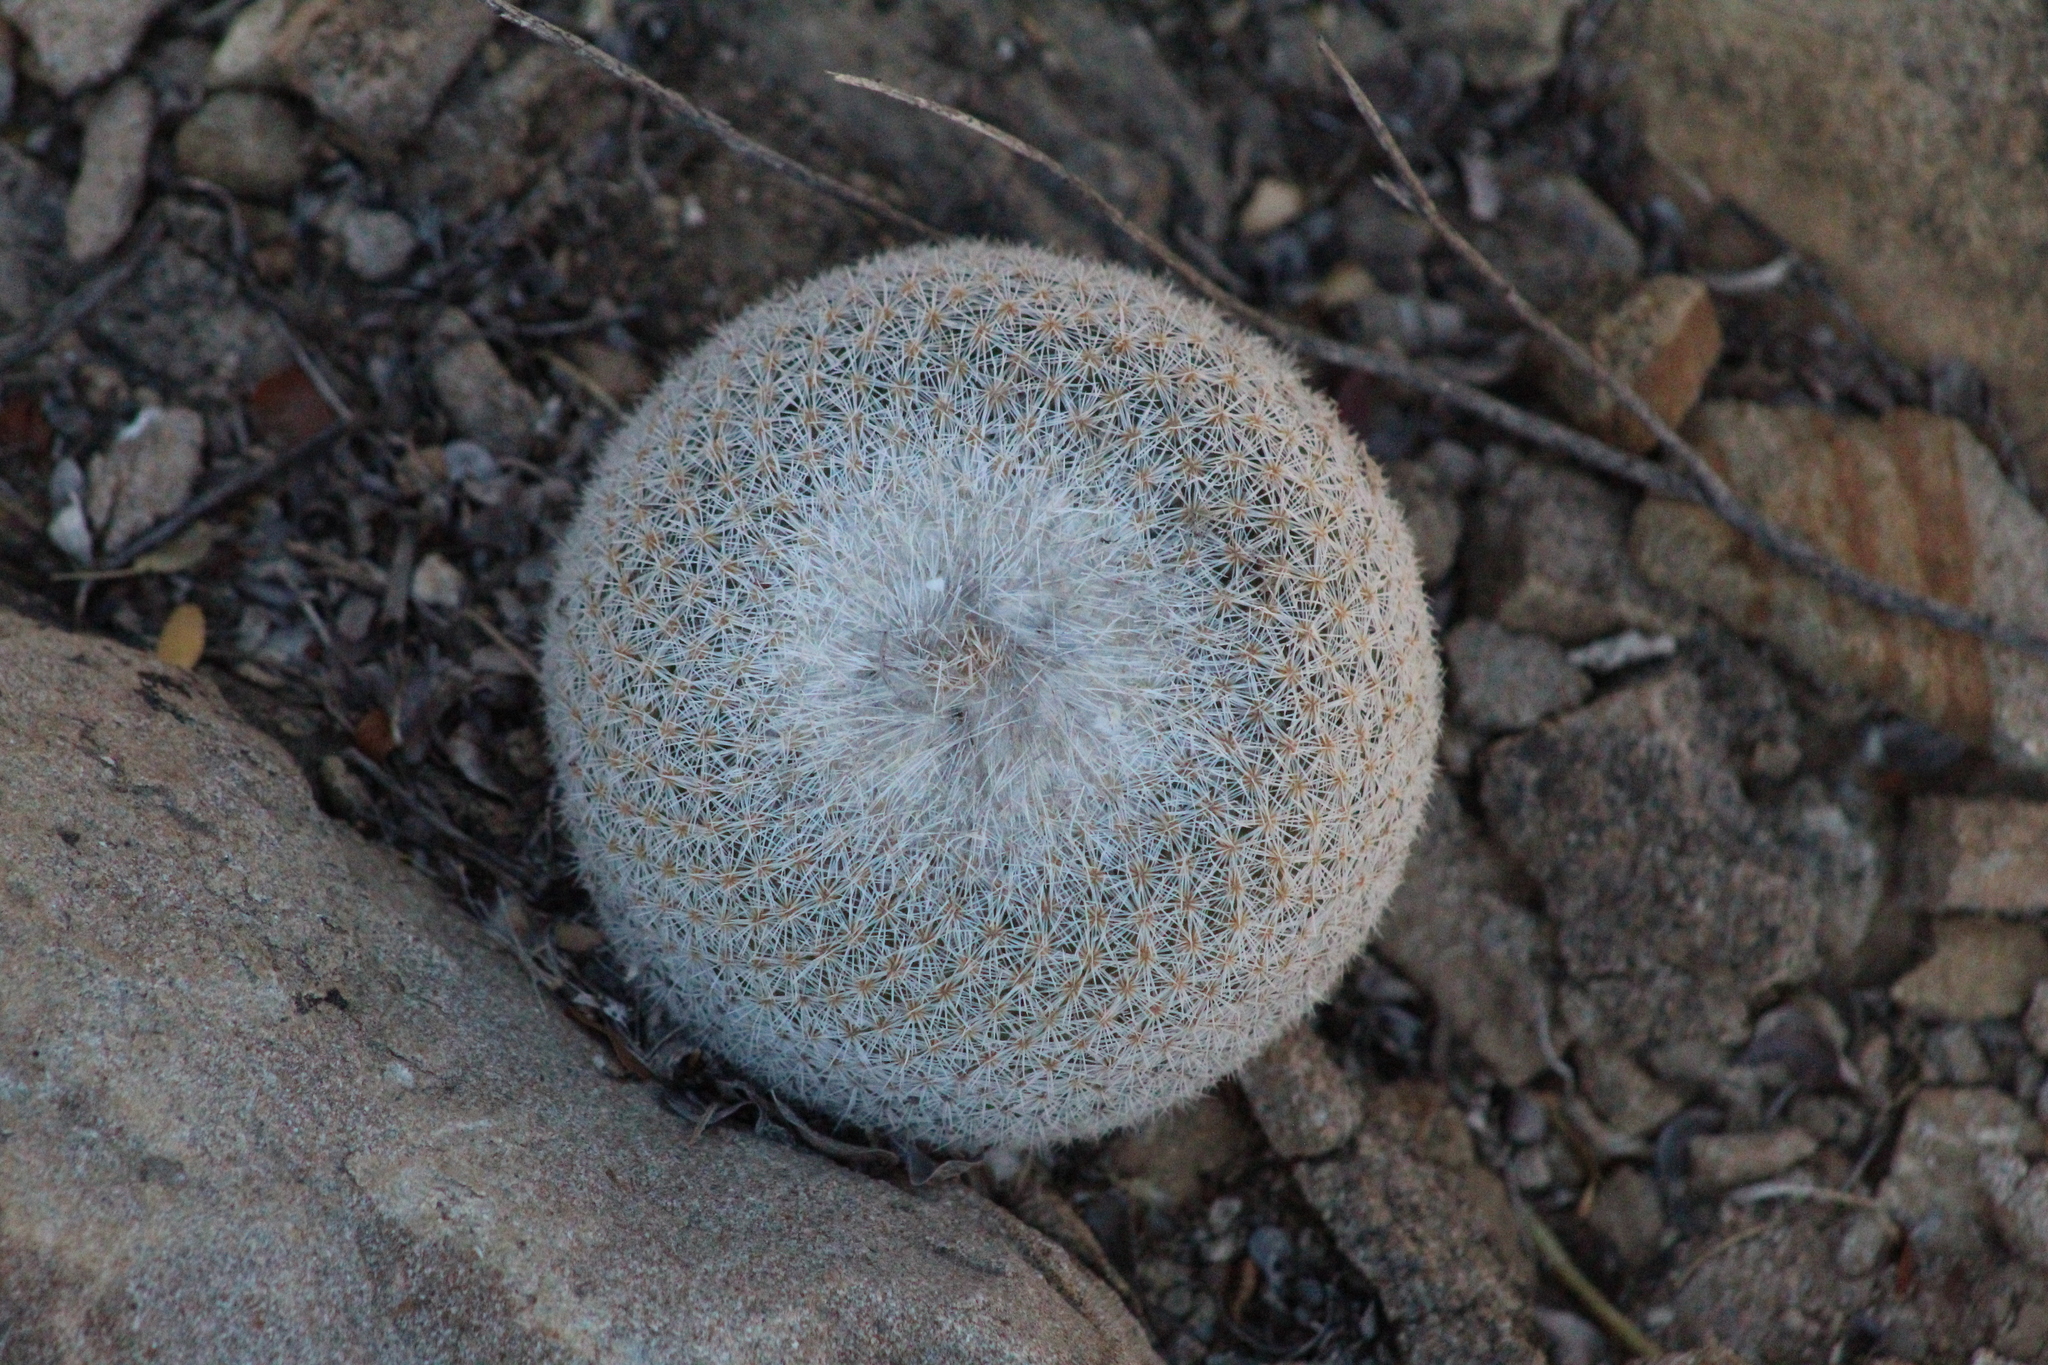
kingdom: Plantae
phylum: Tracheophyta
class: Magnoliopsida
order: Caryophyllales
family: Cactaceae
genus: Epithelantha
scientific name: Epithelantha micromeris
